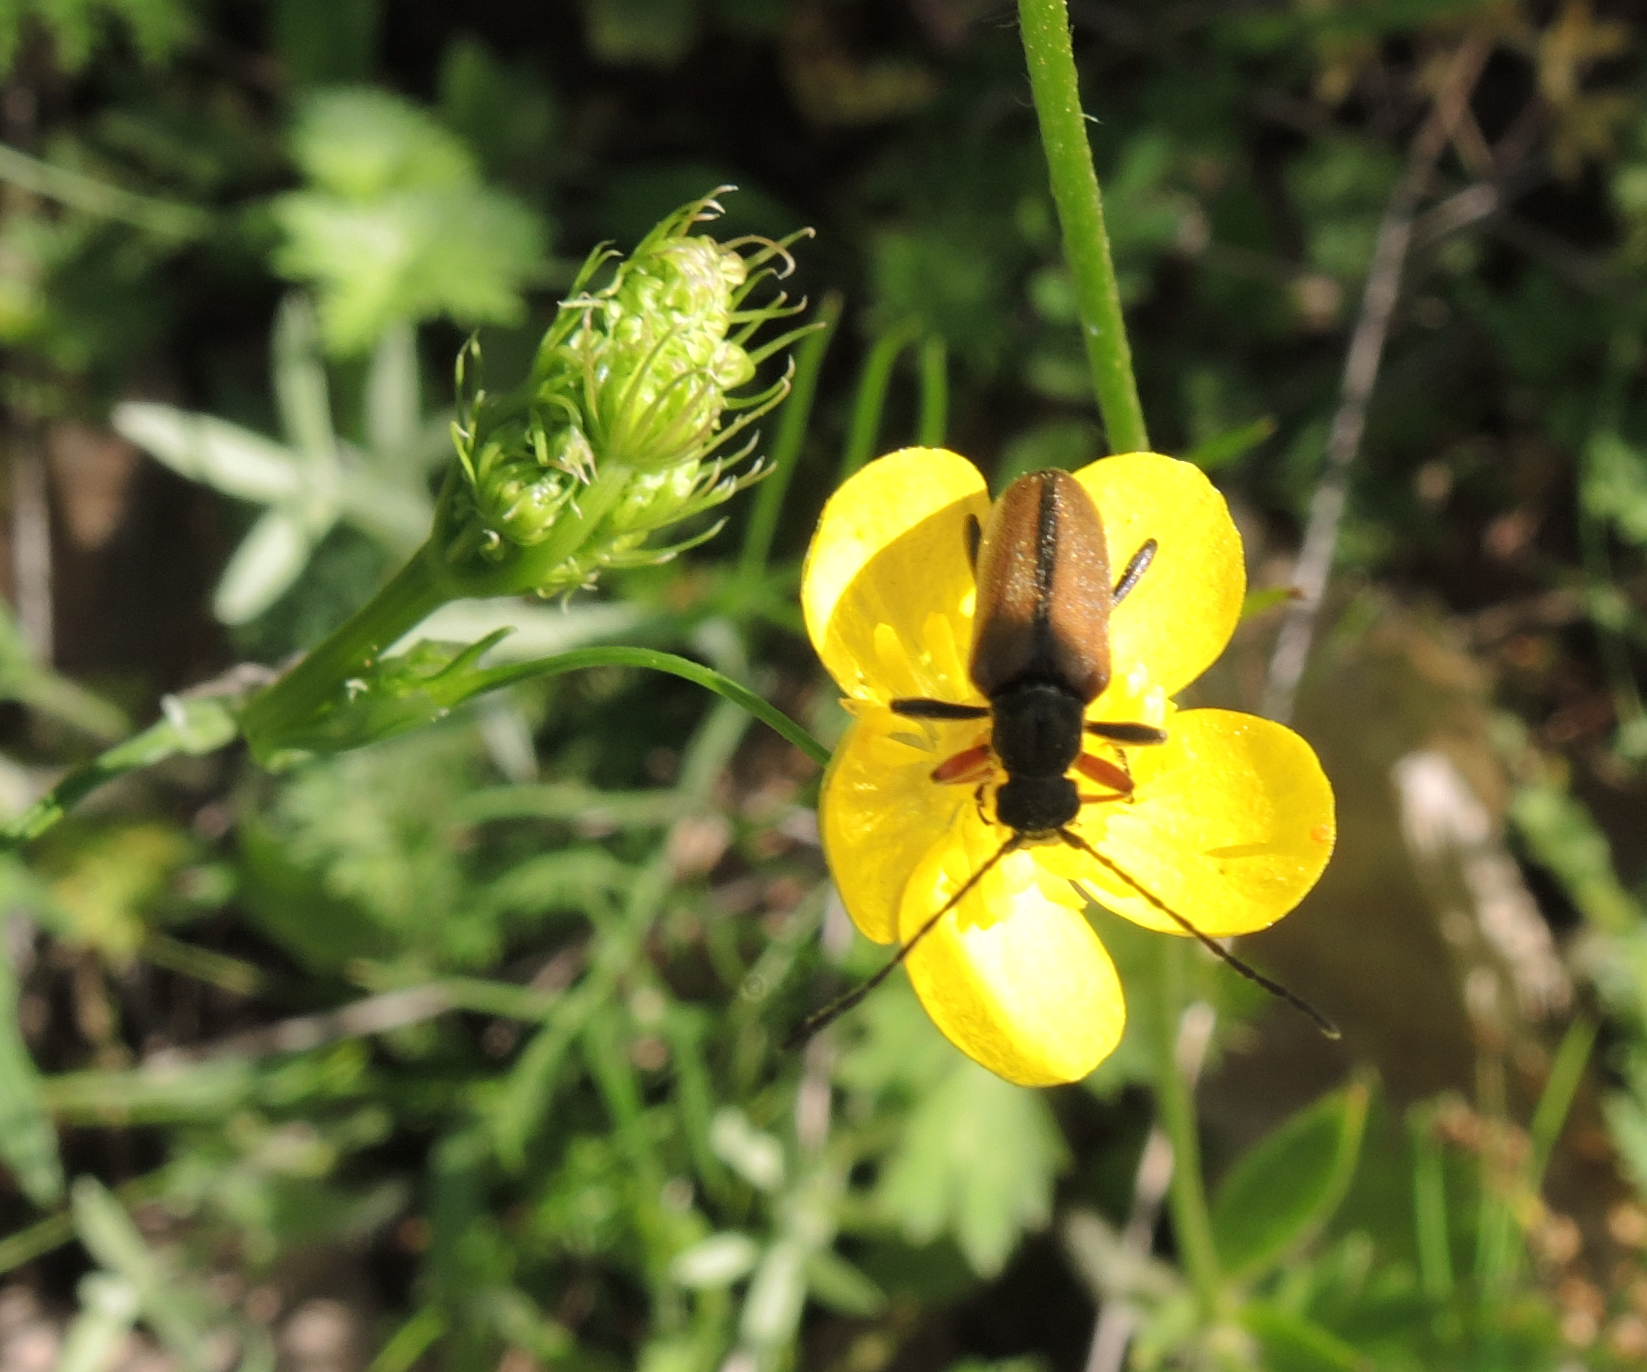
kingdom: Animalia
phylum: Arthropoda
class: Insecta
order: Coleoptera
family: Cerambycidae
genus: Cortodera
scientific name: Cortodera flavimana
